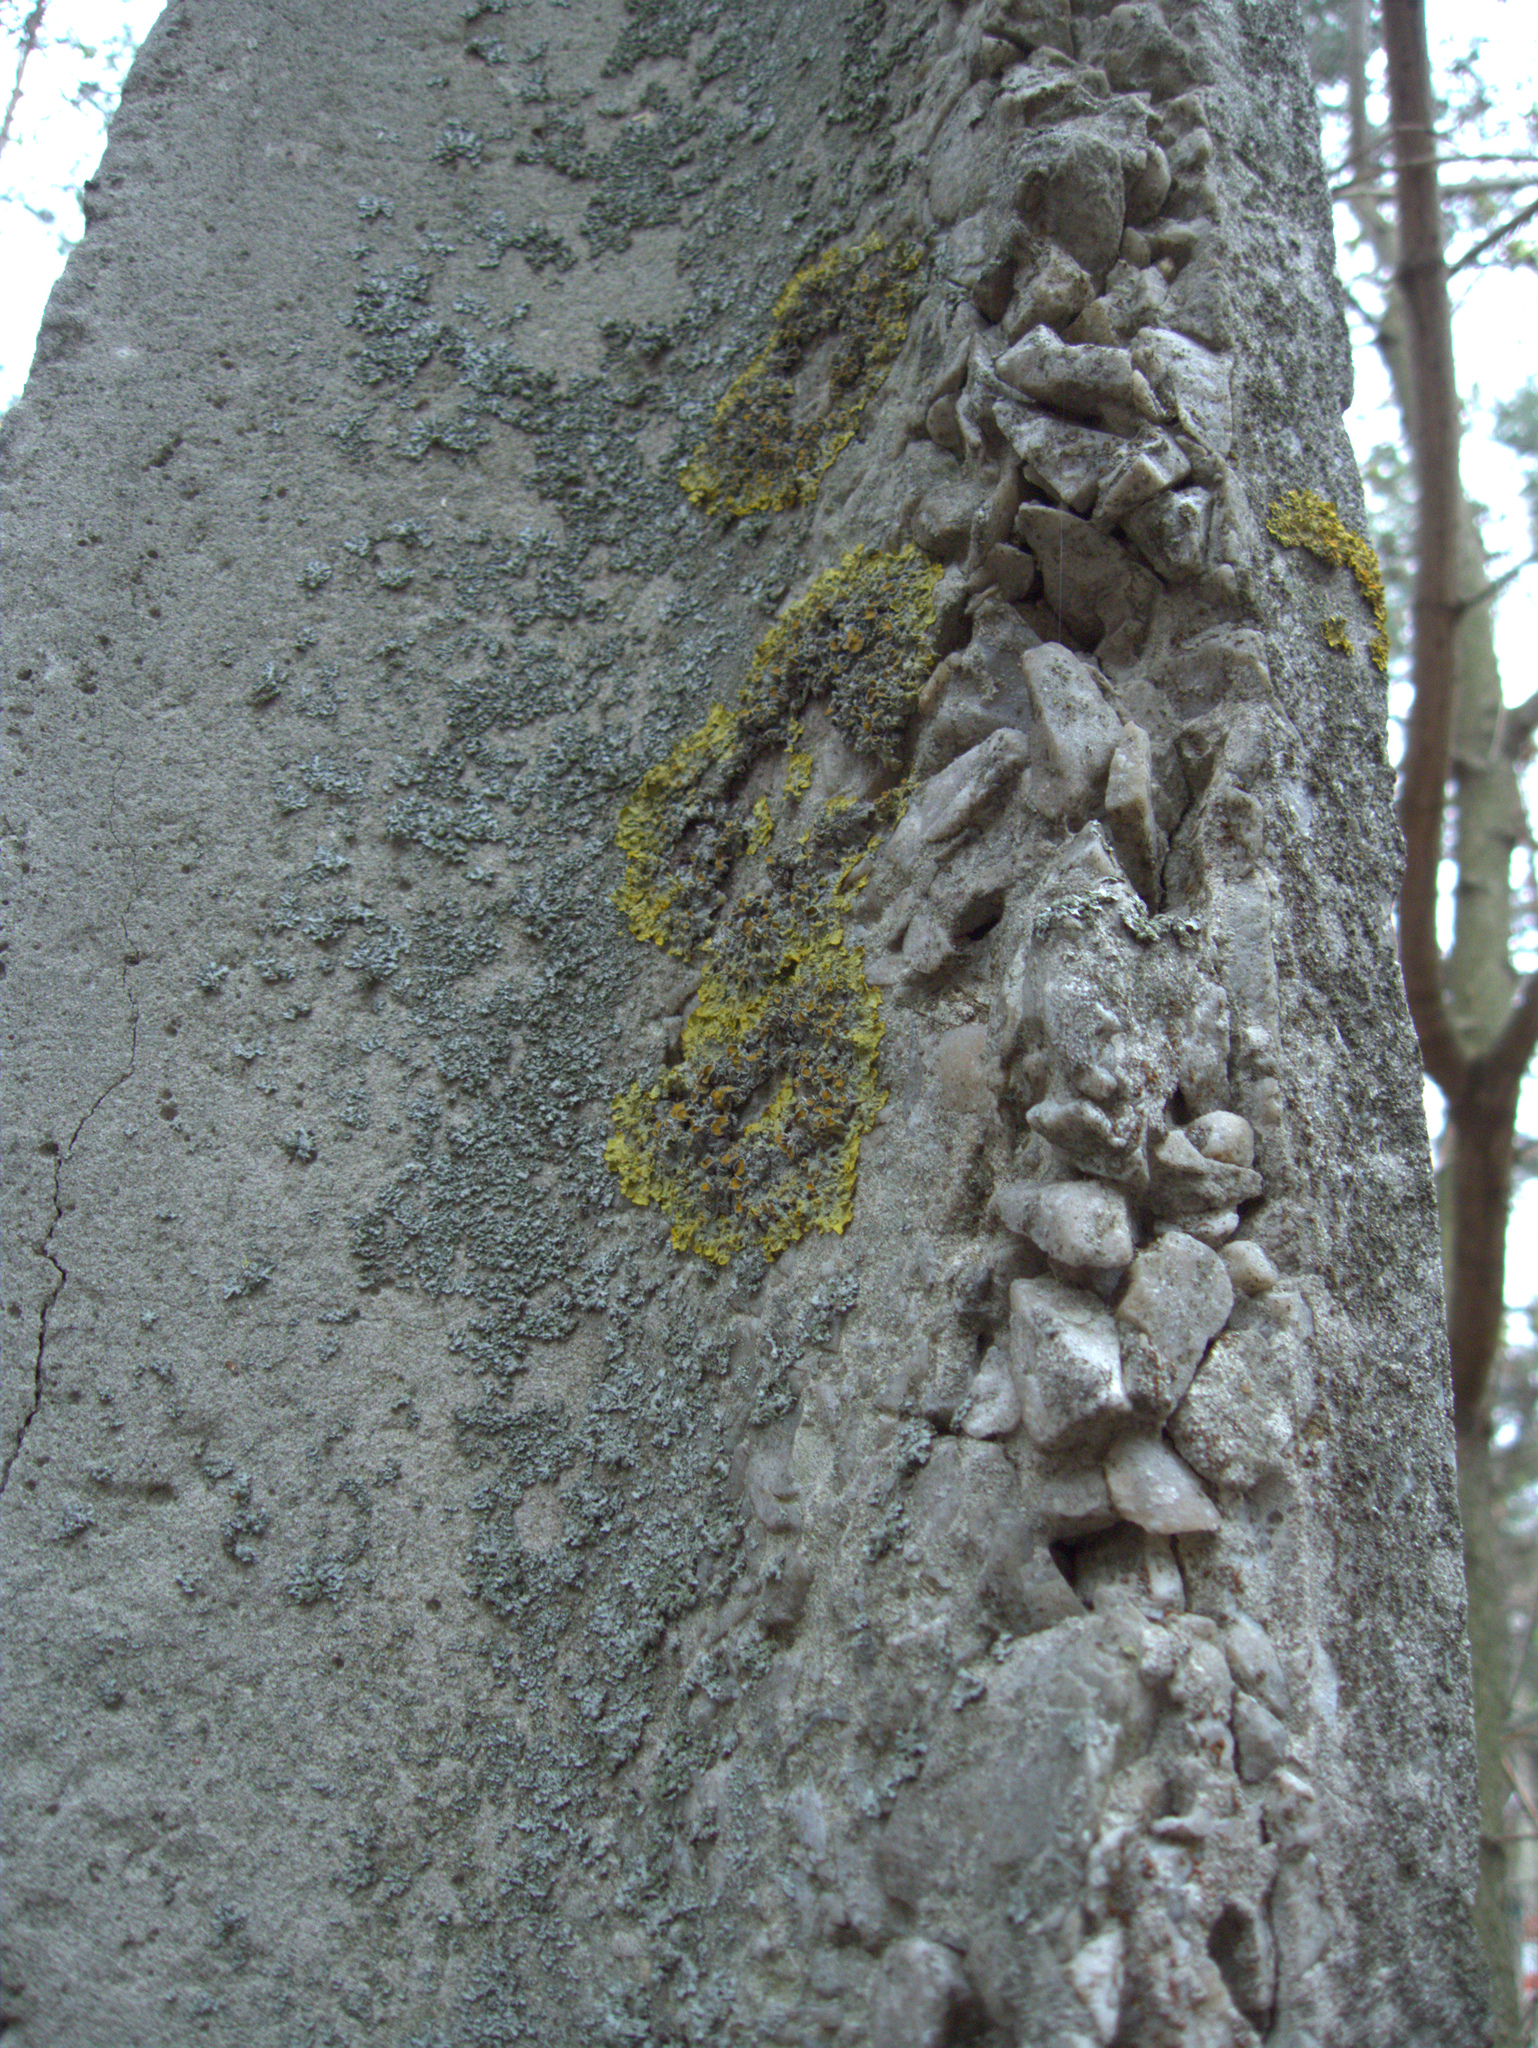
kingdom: Fungi
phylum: Ascomycota
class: Lecanoromycetes
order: Teloschistales
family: Teloschistaceae
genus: Xanthoria
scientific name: Xanthoria parietina
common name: Common orange lichen
